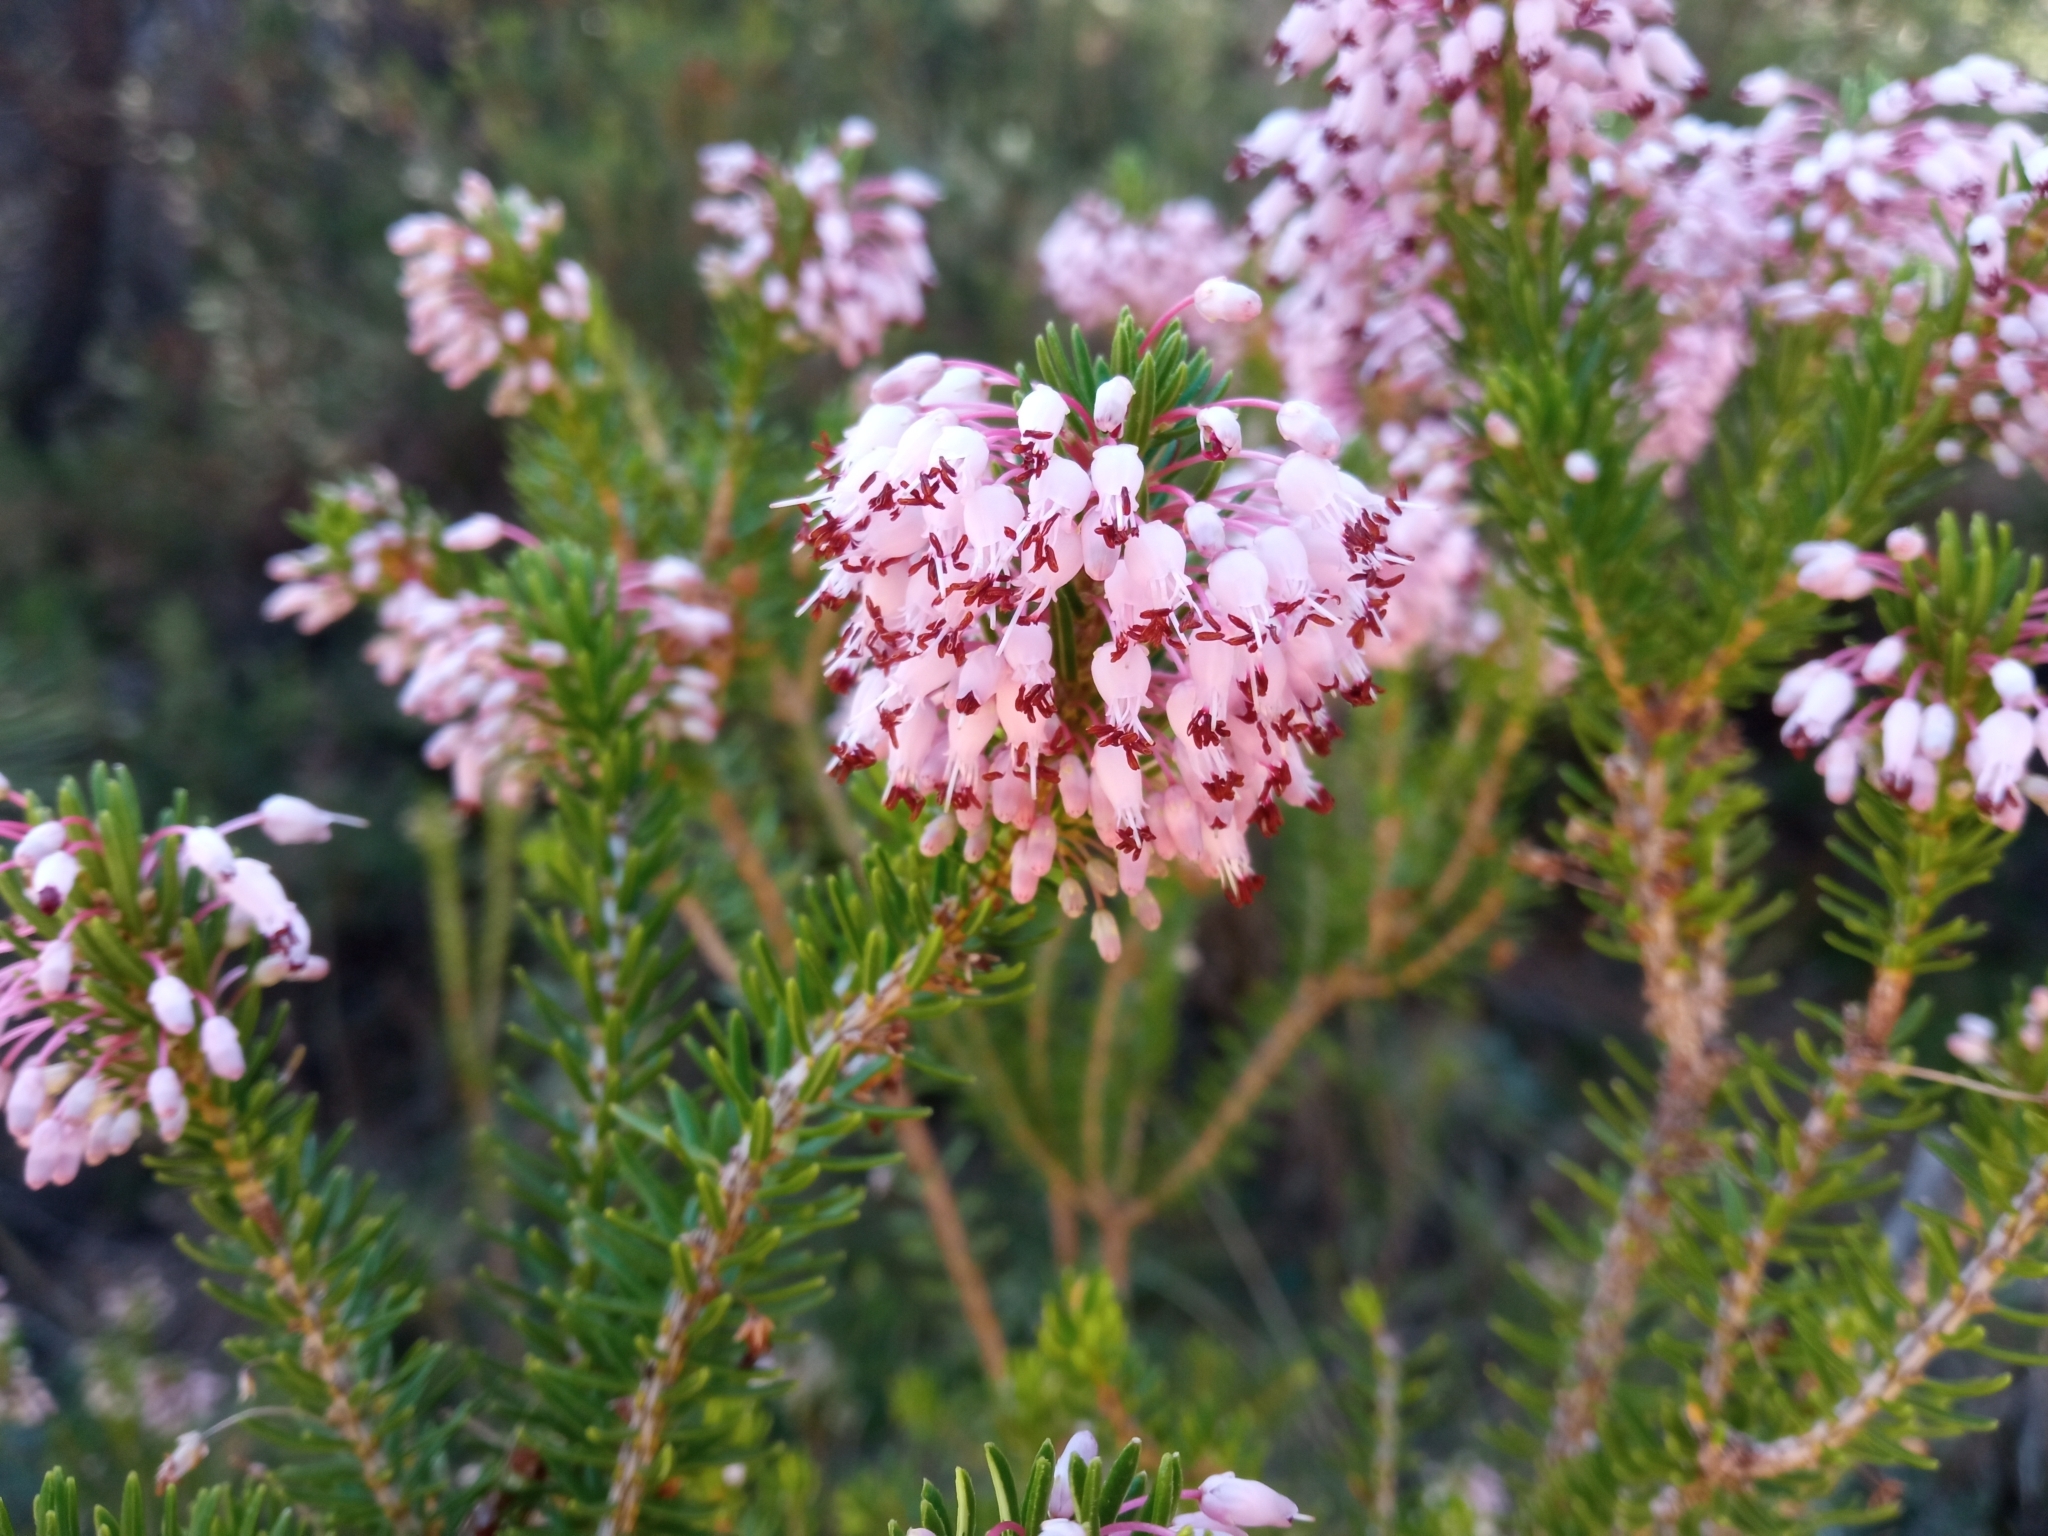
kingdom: Plantae
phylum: Tracheophyta
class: Magnoliopsida
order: Ericales
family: Ericaceae
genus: Erica
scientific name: Erica multiflora
